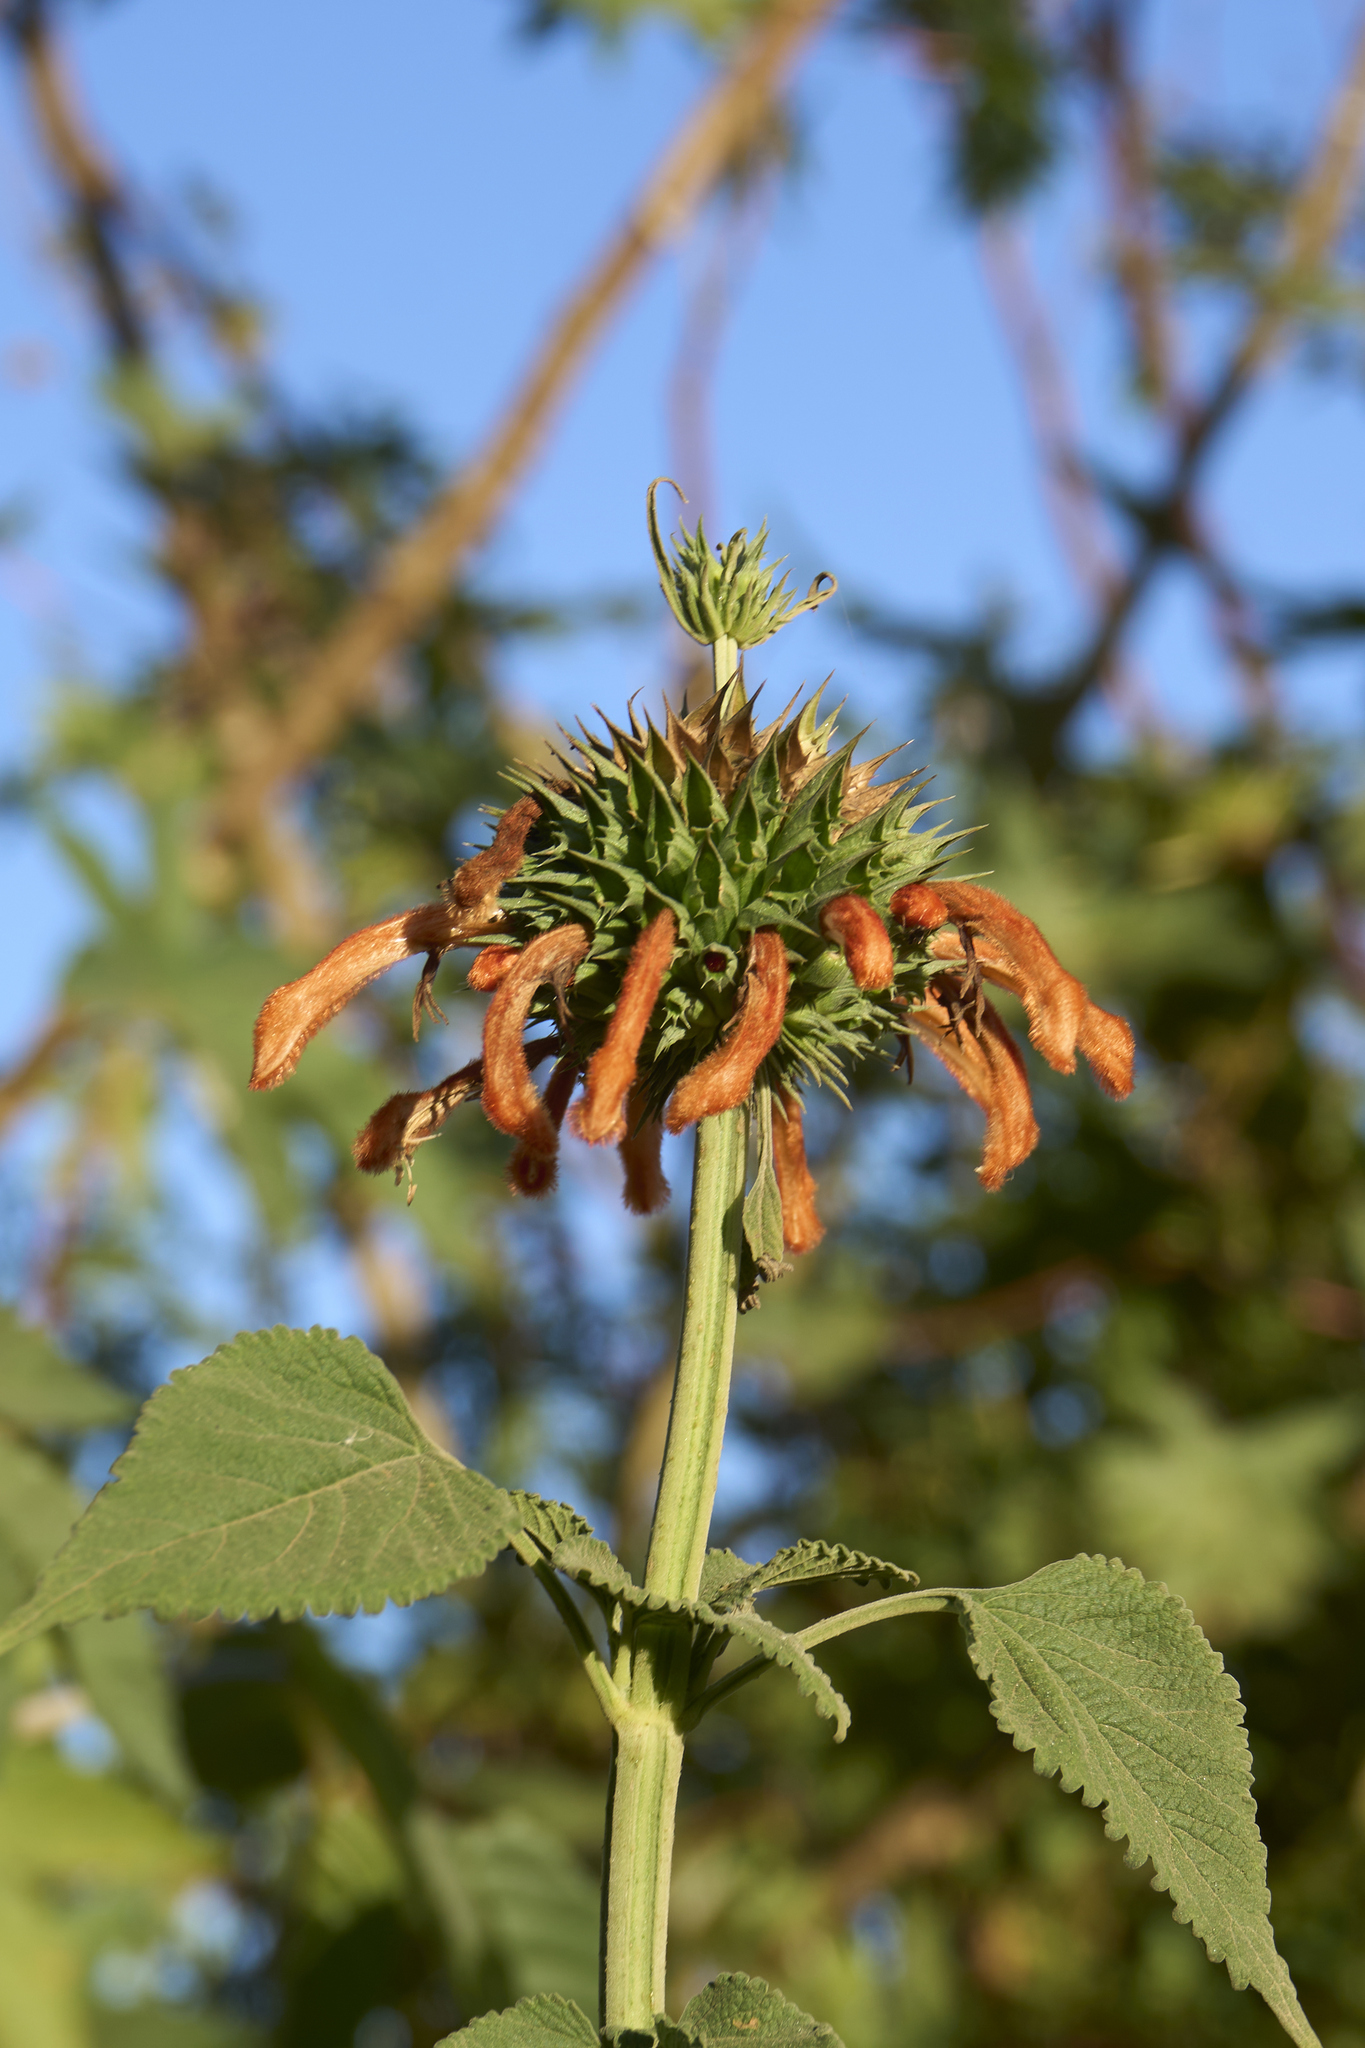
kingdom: Plantae
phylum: Tracheophyta
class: Magnoliopsida
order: Lamiales
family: Lamiaceae
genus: Leonotis
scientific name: Leonotis nepetifolia
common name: Christmas candlestick
